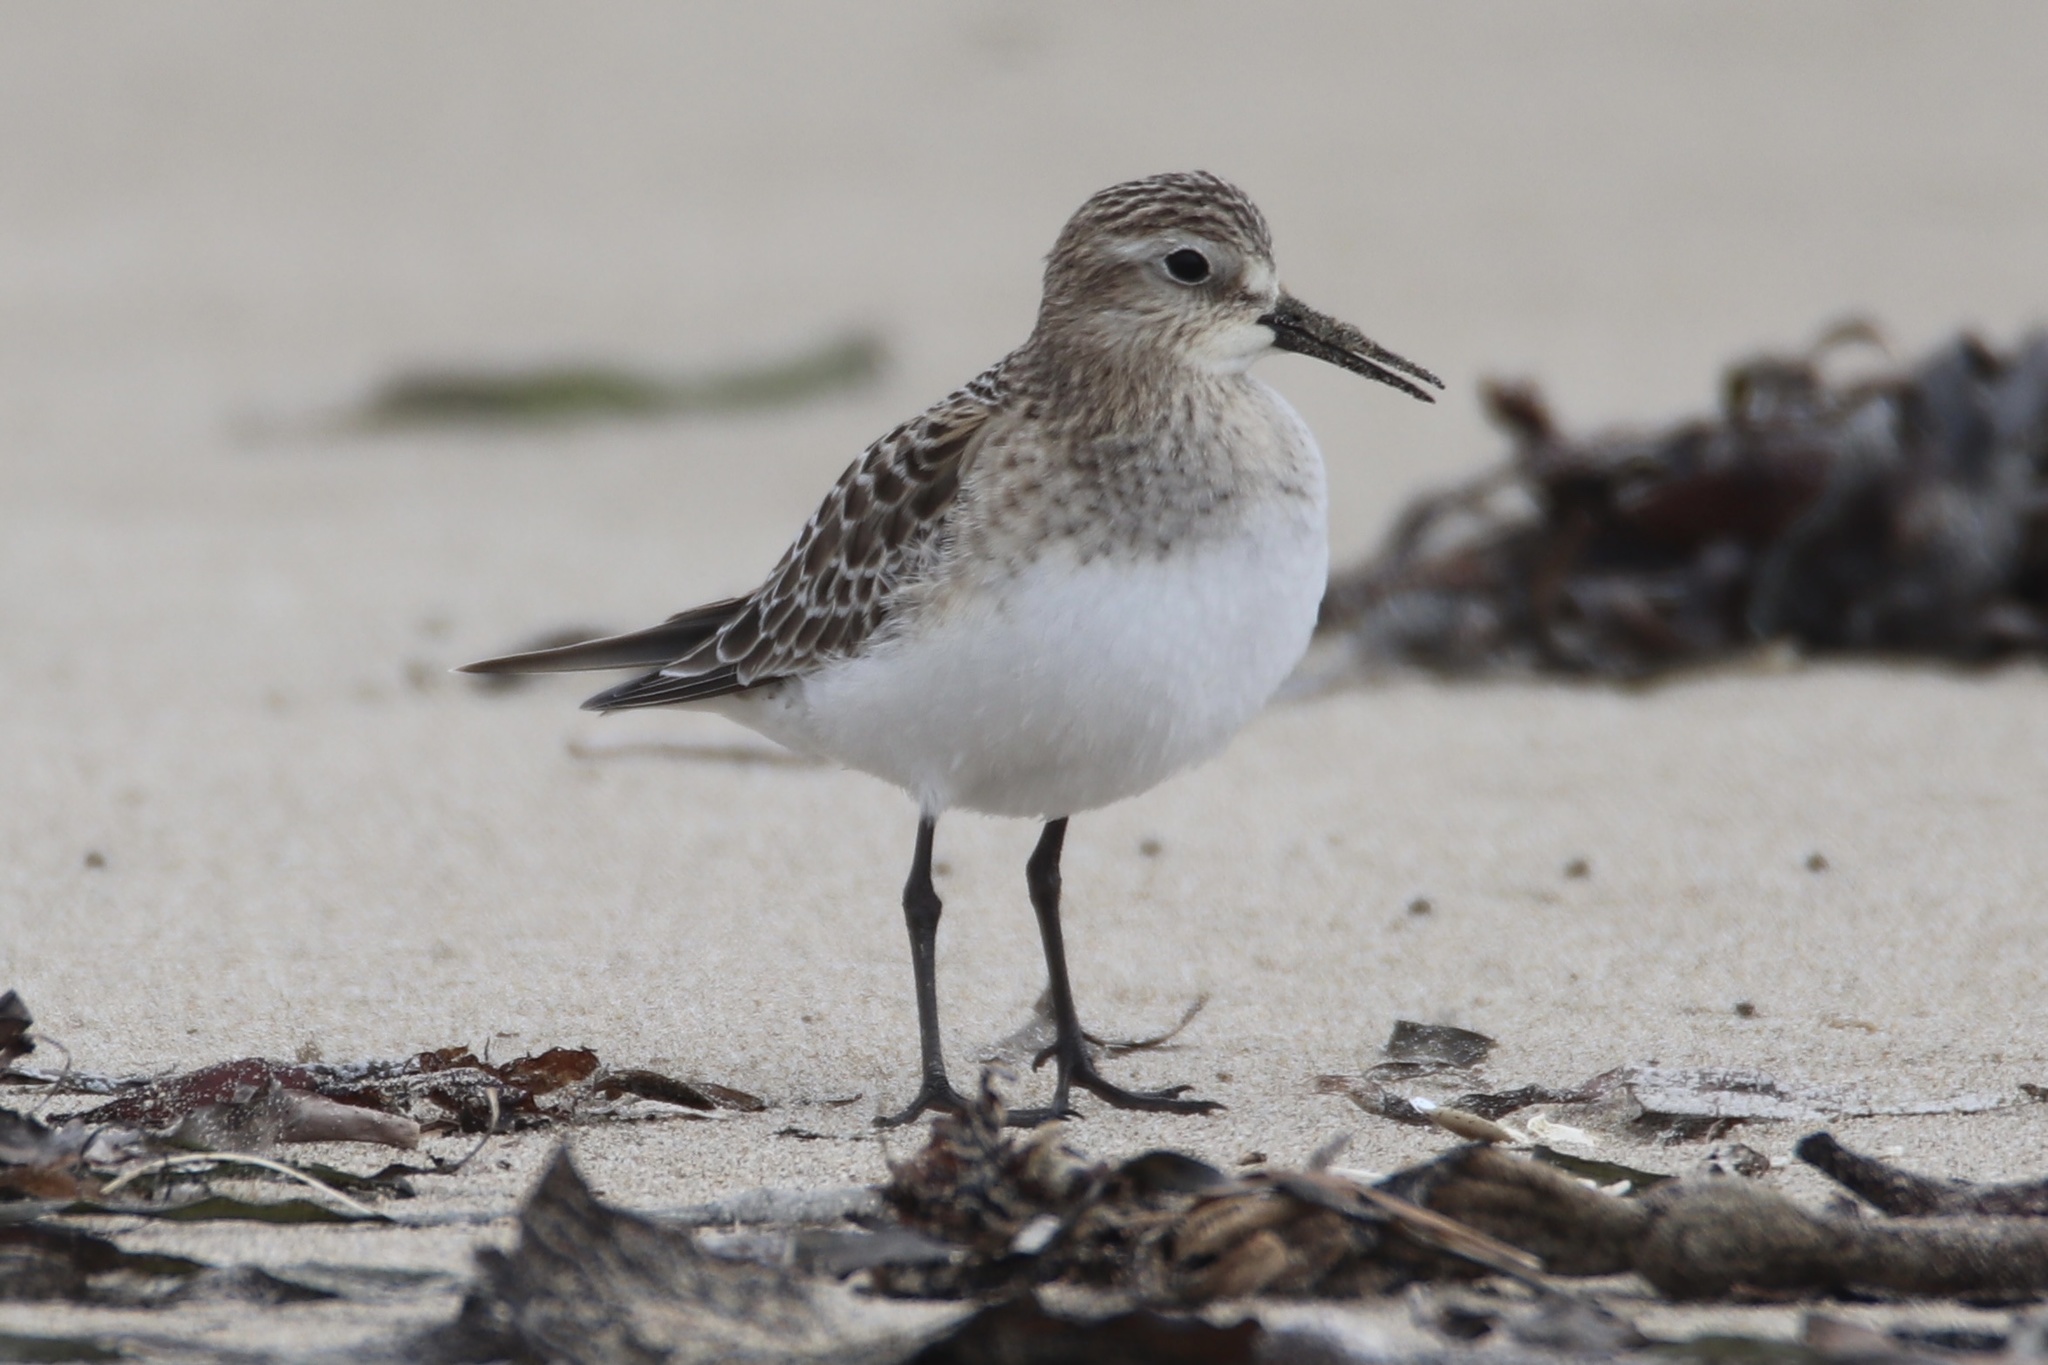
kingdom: Animalia
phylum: Chordata
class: Aves
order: Charadriiformes
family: Scolopacidae
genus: Calidris
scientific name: Calidris bairdii
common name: Baird's sandpiper
